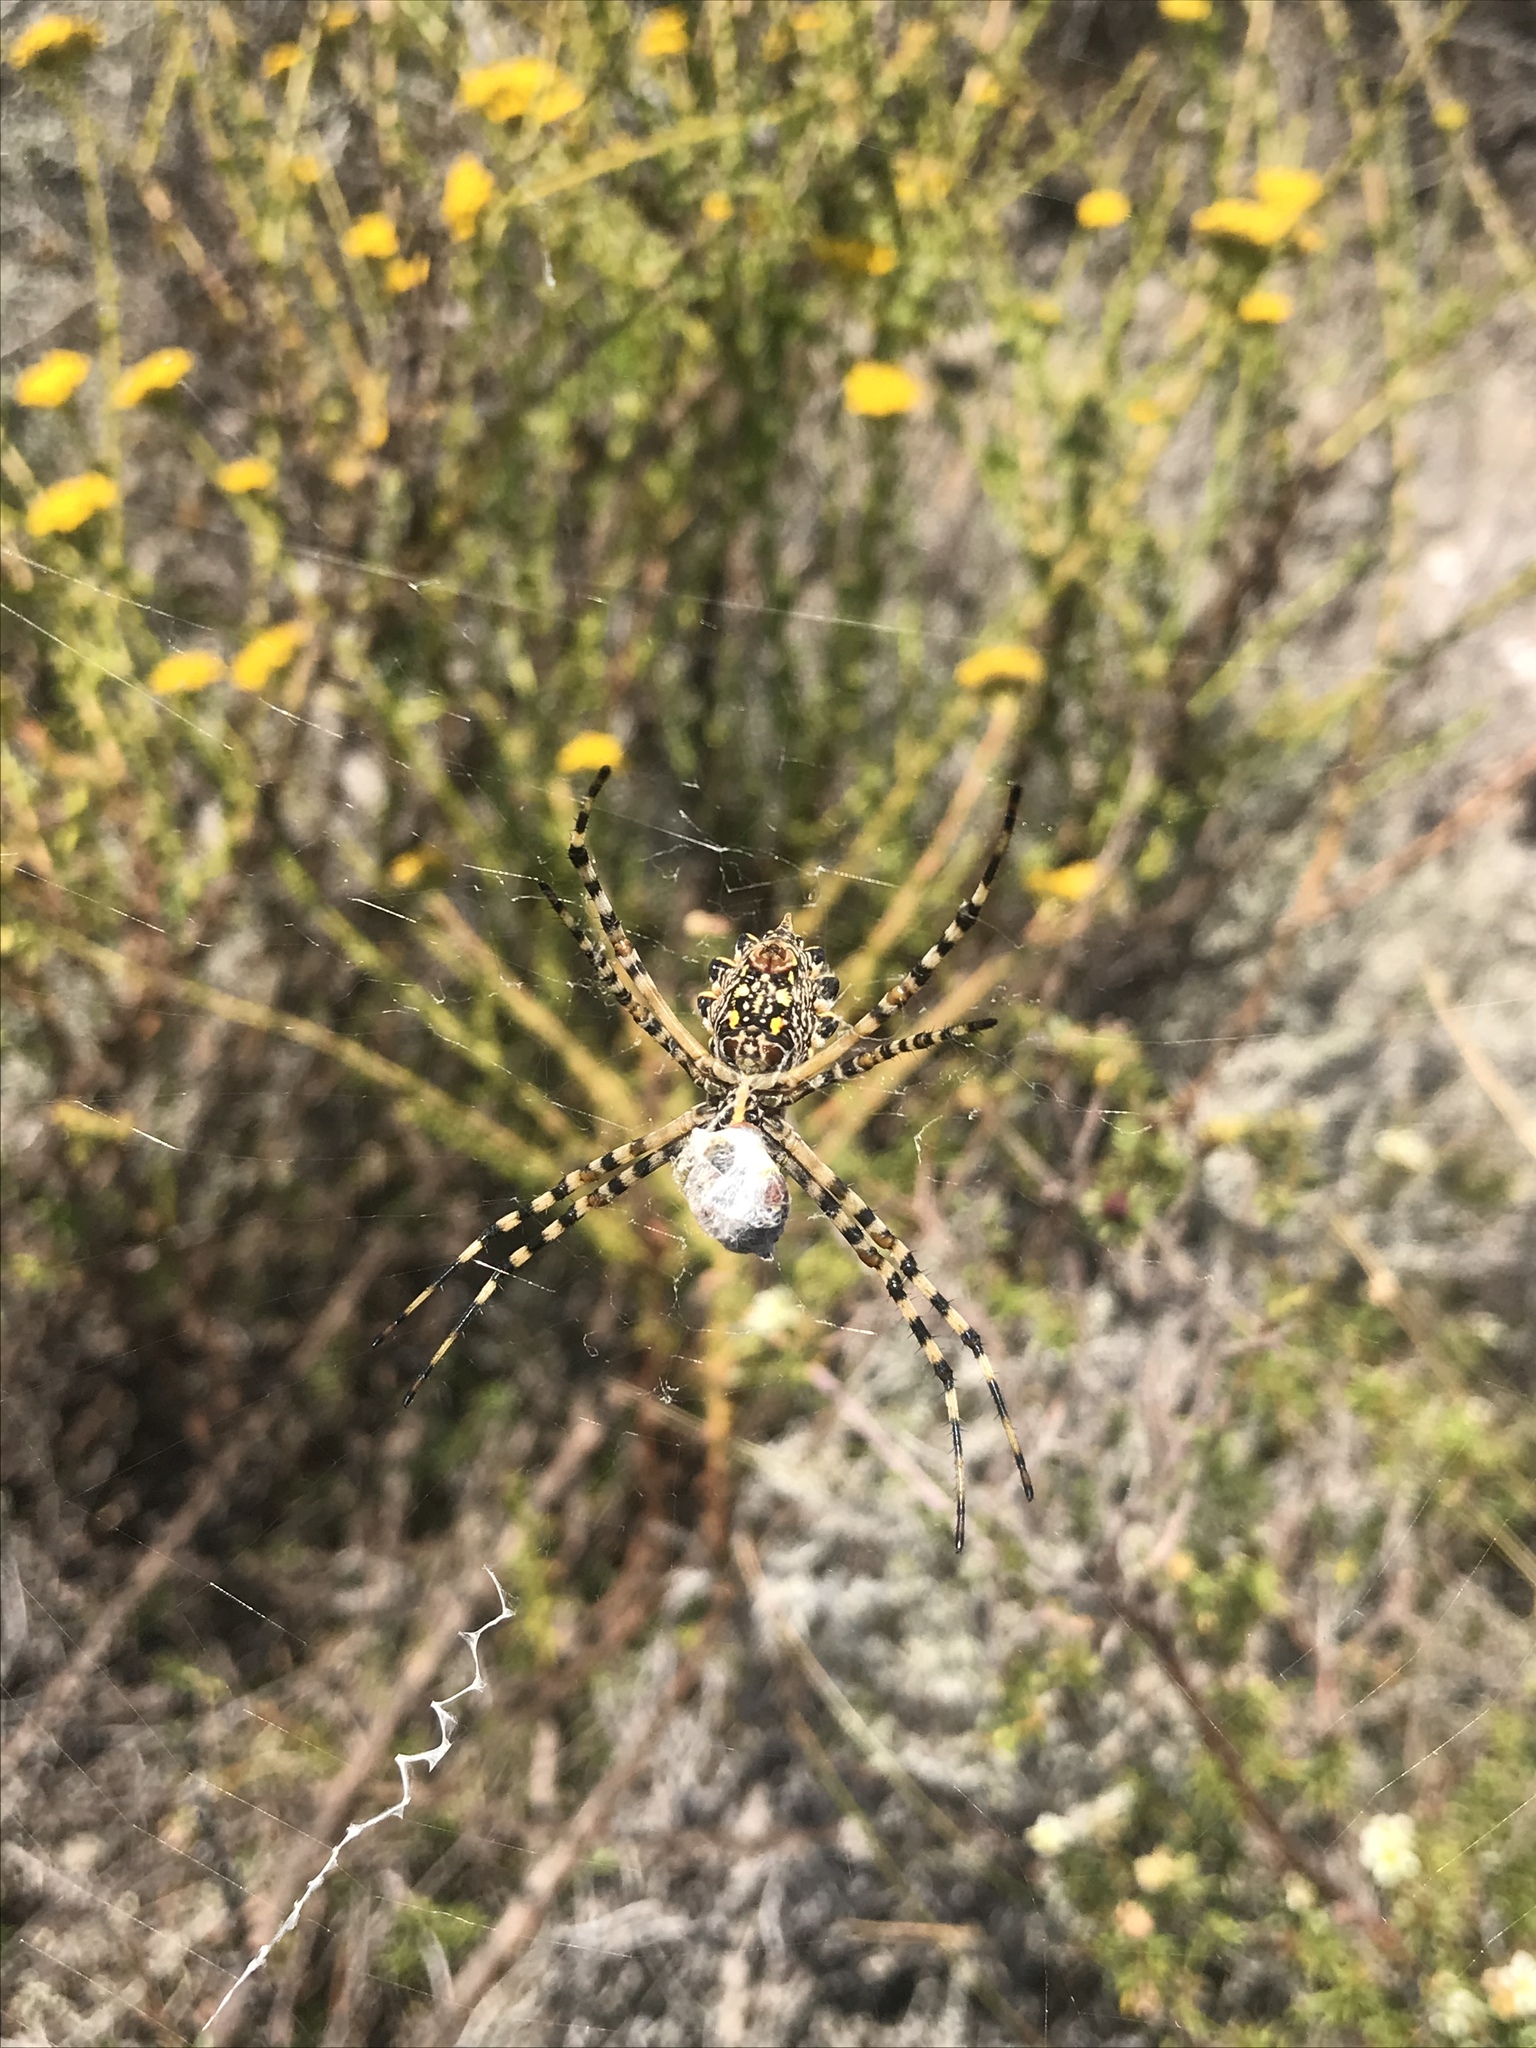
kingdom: Animalia
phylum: Arthropoda
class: Arachnida
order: Araneae
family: Araneidae
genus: Argiope
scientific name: Argiope australis
